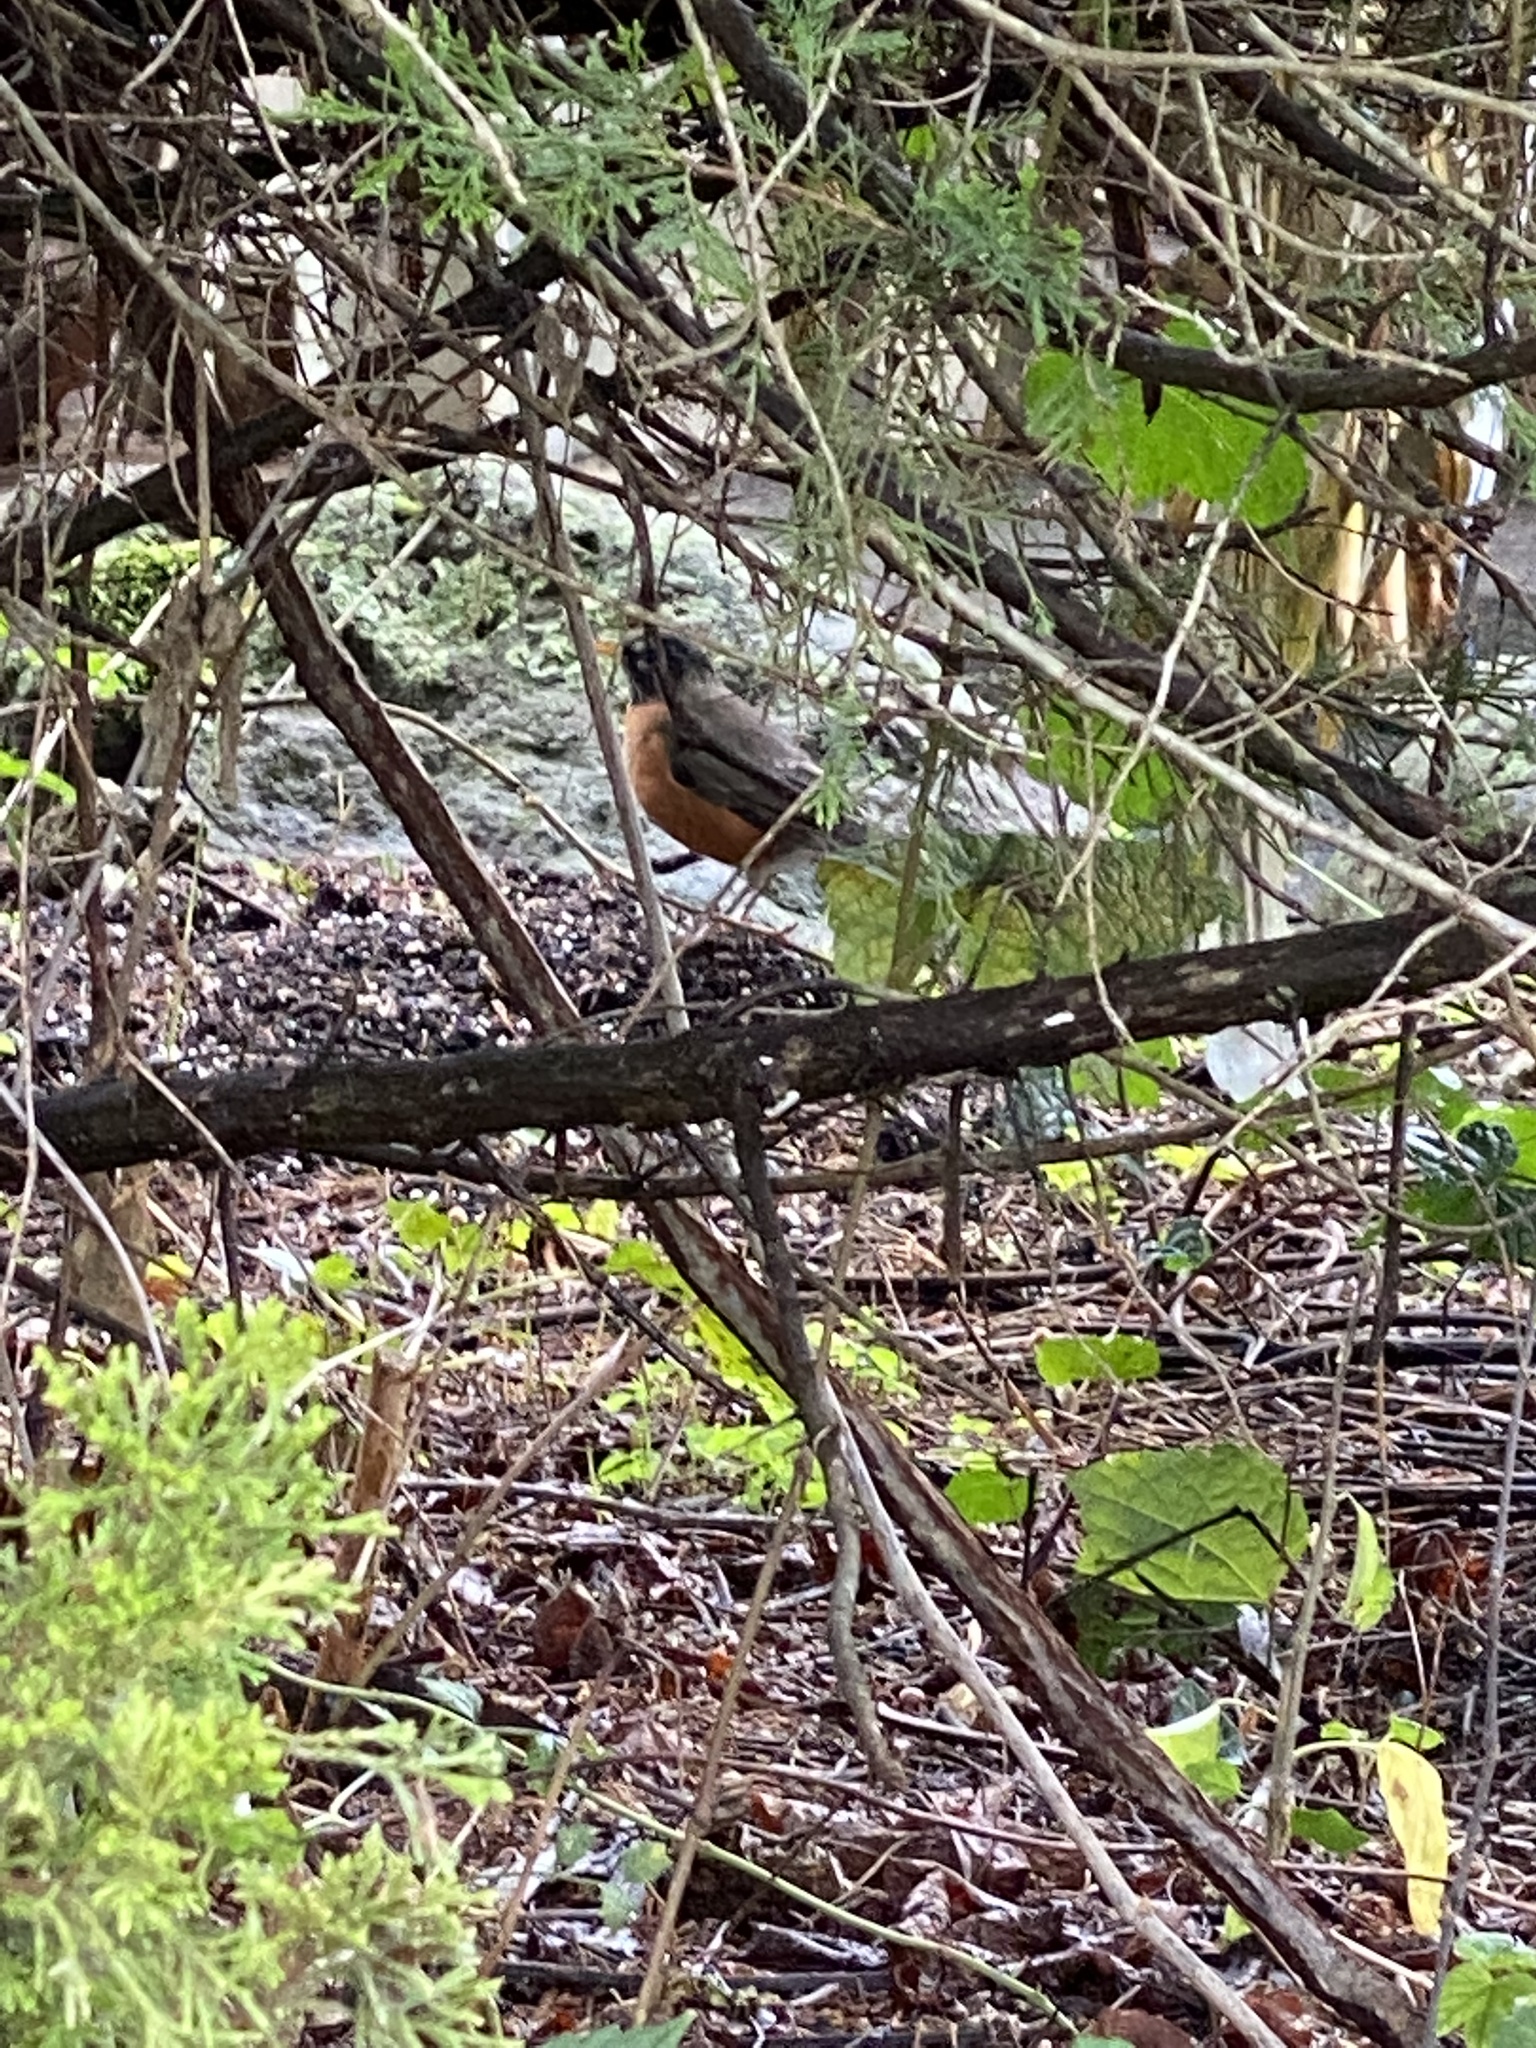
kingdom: Animalia
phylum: Chordata
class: Aves
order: Passeriformes
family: Turdidae
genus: Turdus
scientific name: Turdus migratorius
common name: American robin
